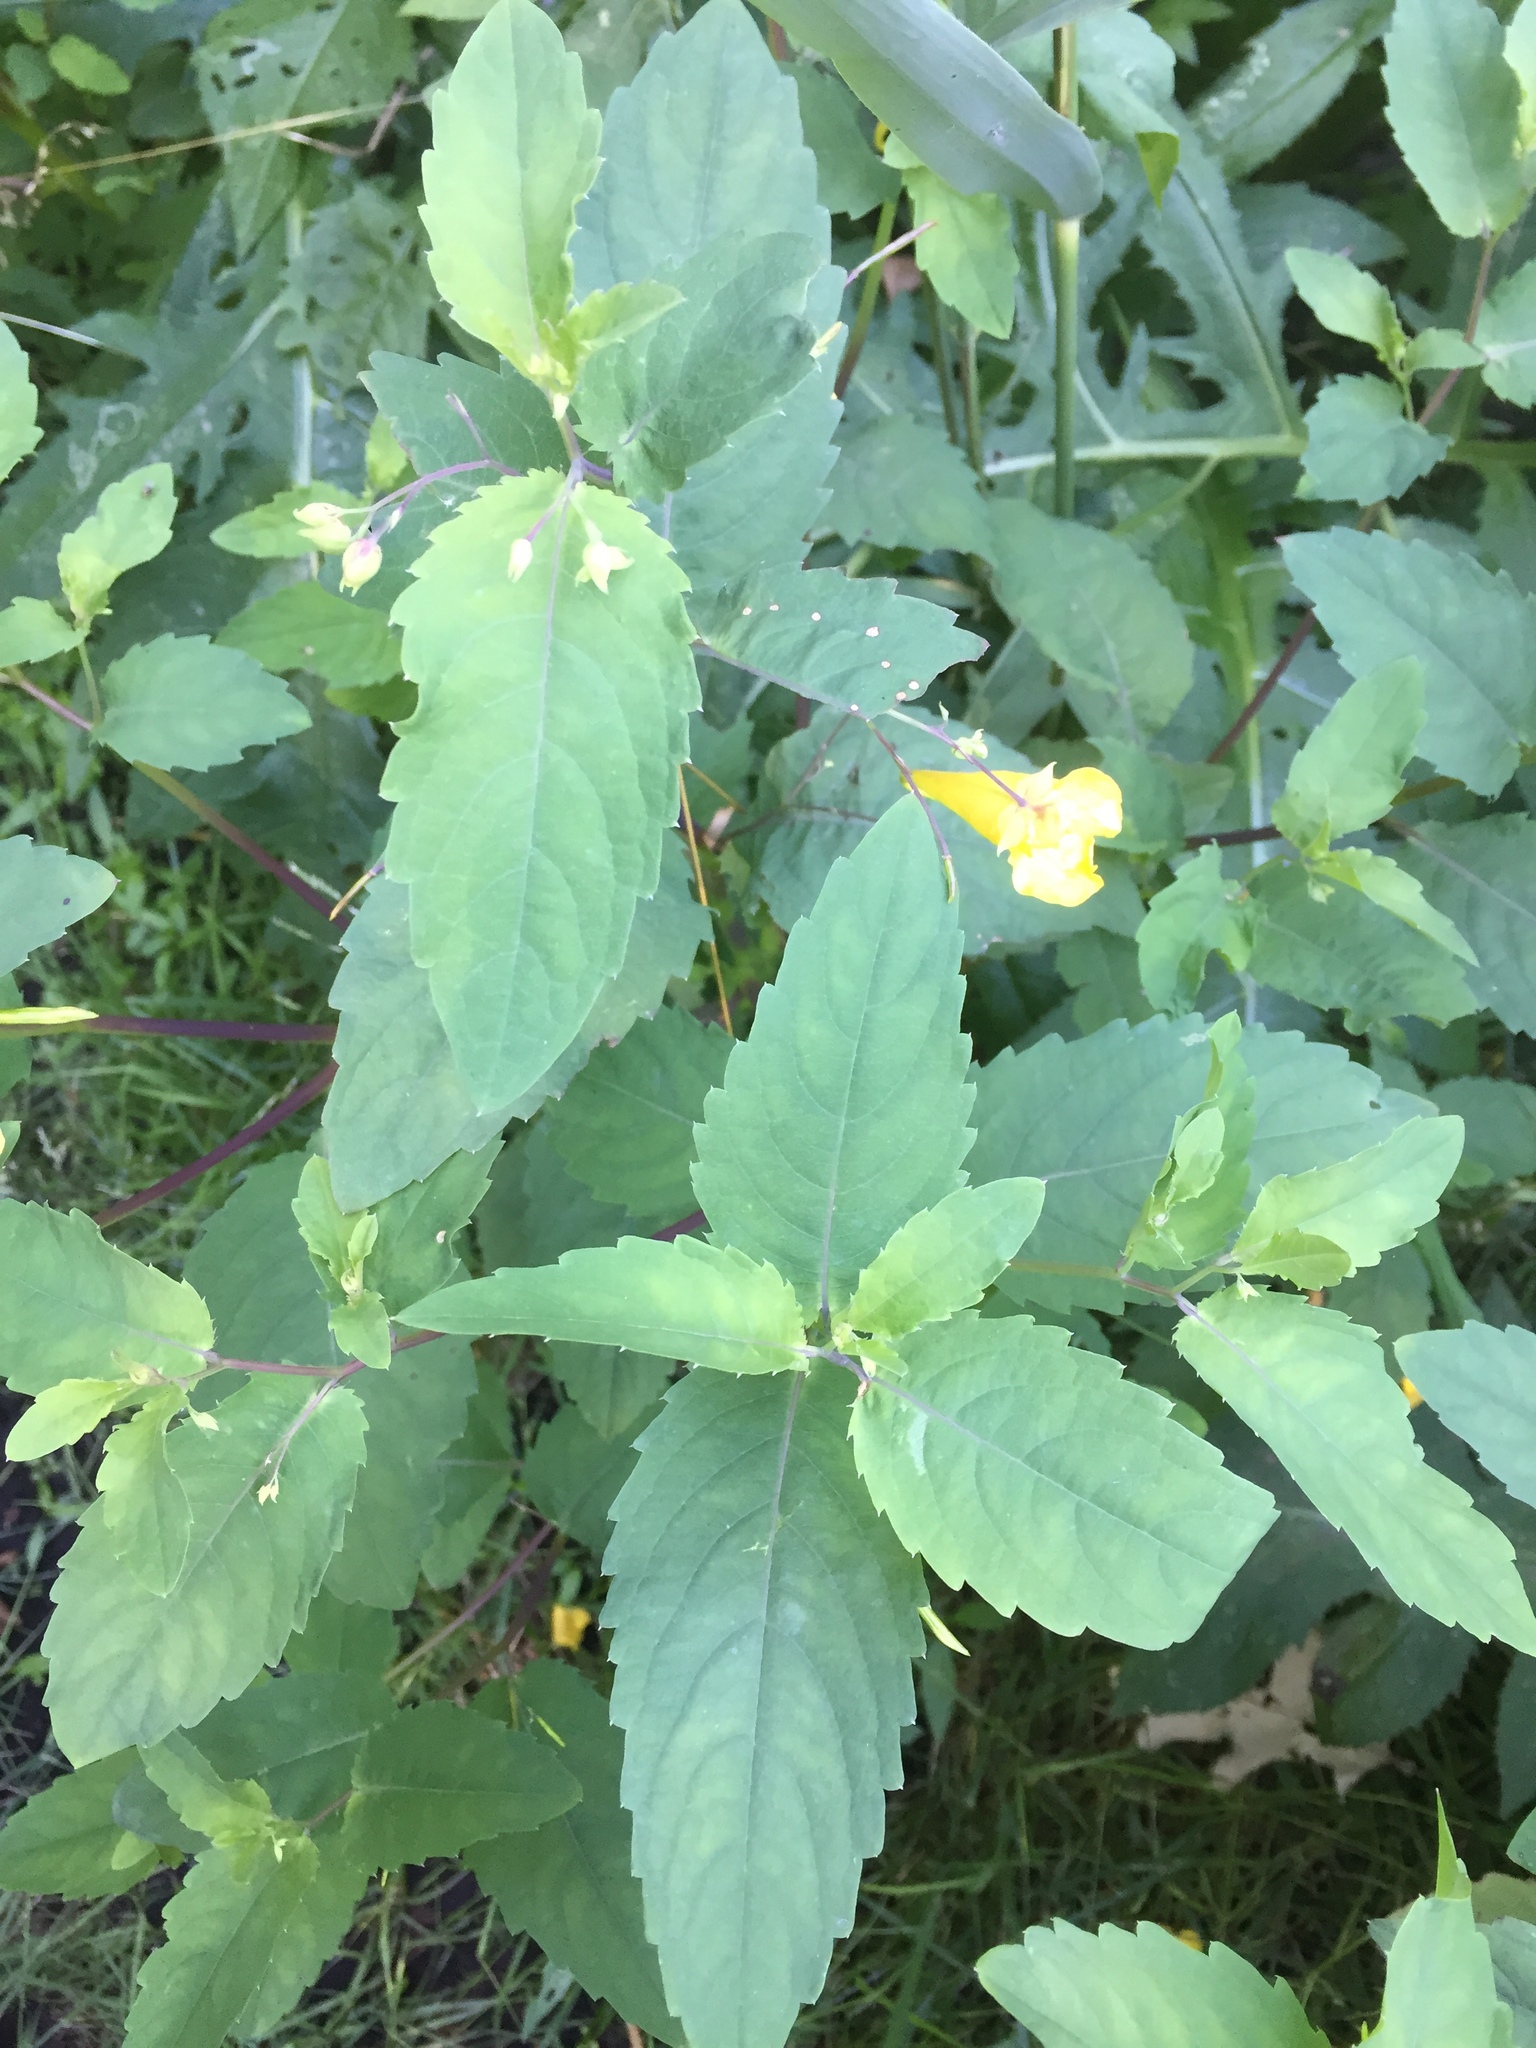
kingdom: Plantae
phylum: Tracheophyta
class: Magnoliopsida
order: Ericales
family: Balsaminaceae
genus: Impatiens
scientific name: Impatiens noli-tangere
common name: Touch-me-not balsam
